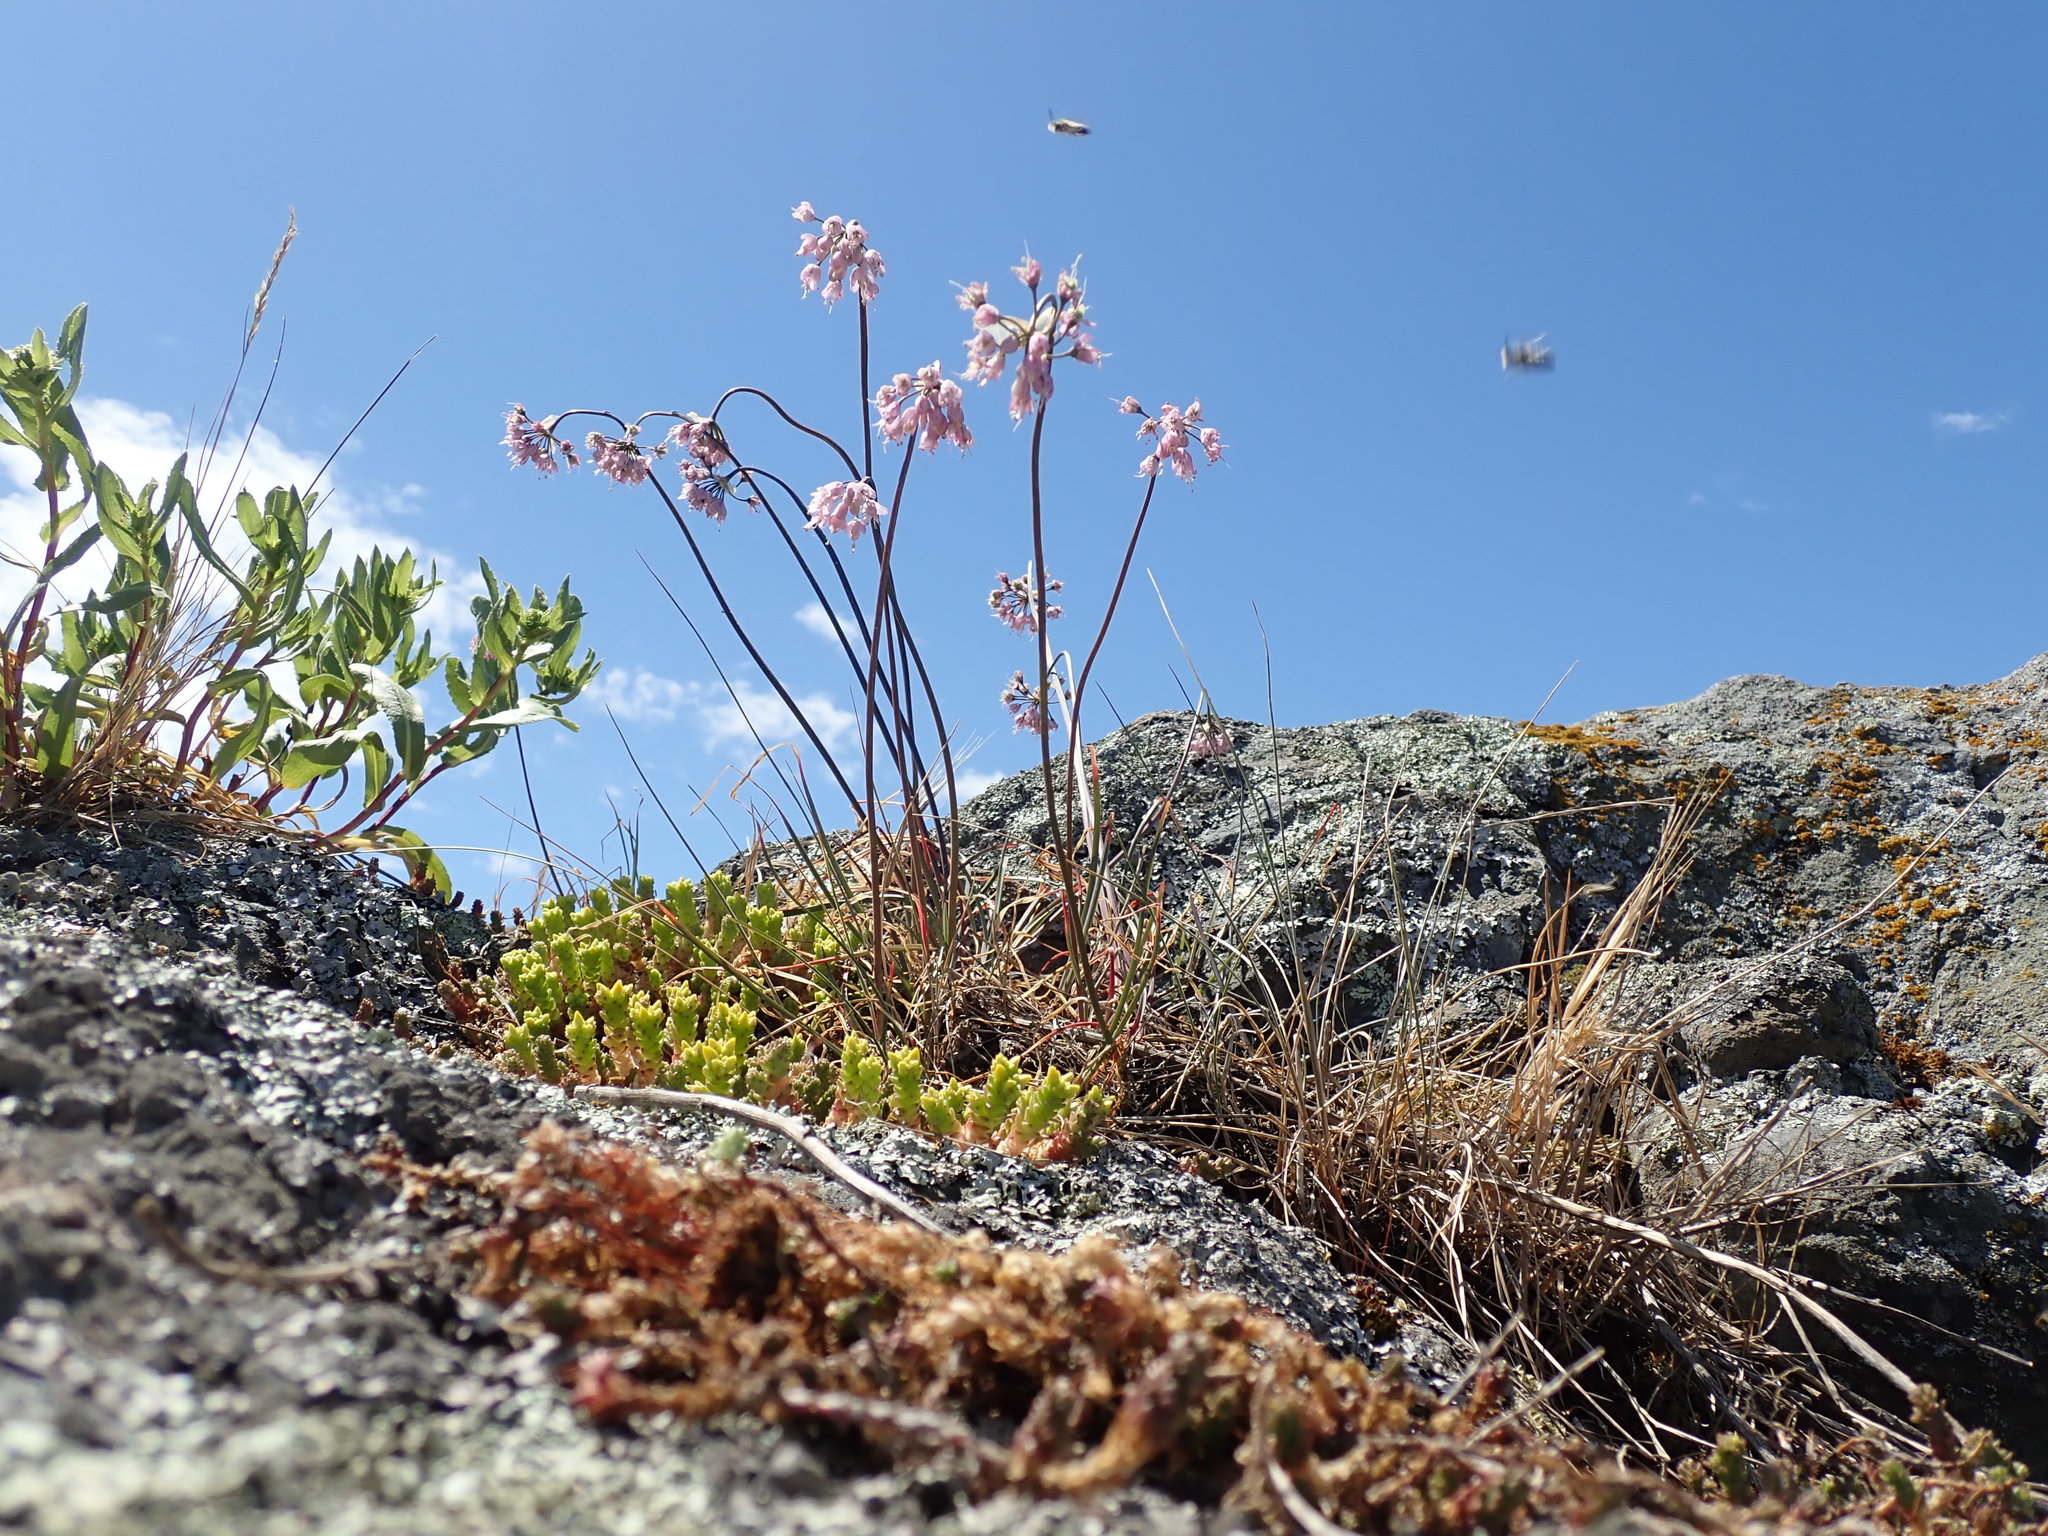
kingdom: Plantae
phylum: Tracheophyta
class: Liliopsida
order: Asparagales
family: Amaryllidaceae
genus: Allium
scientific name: Allium cernuum
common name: Nodding onion
